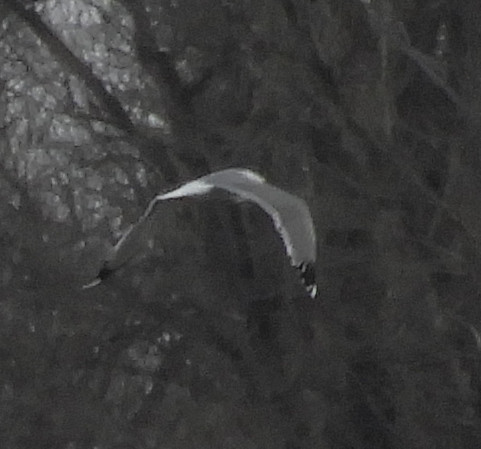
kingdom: Animalia
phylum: Chordata
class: Aves
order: Charadriiformes
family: Laridae
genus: Larus
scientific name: Larus cachinnans
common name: Caspian gull
